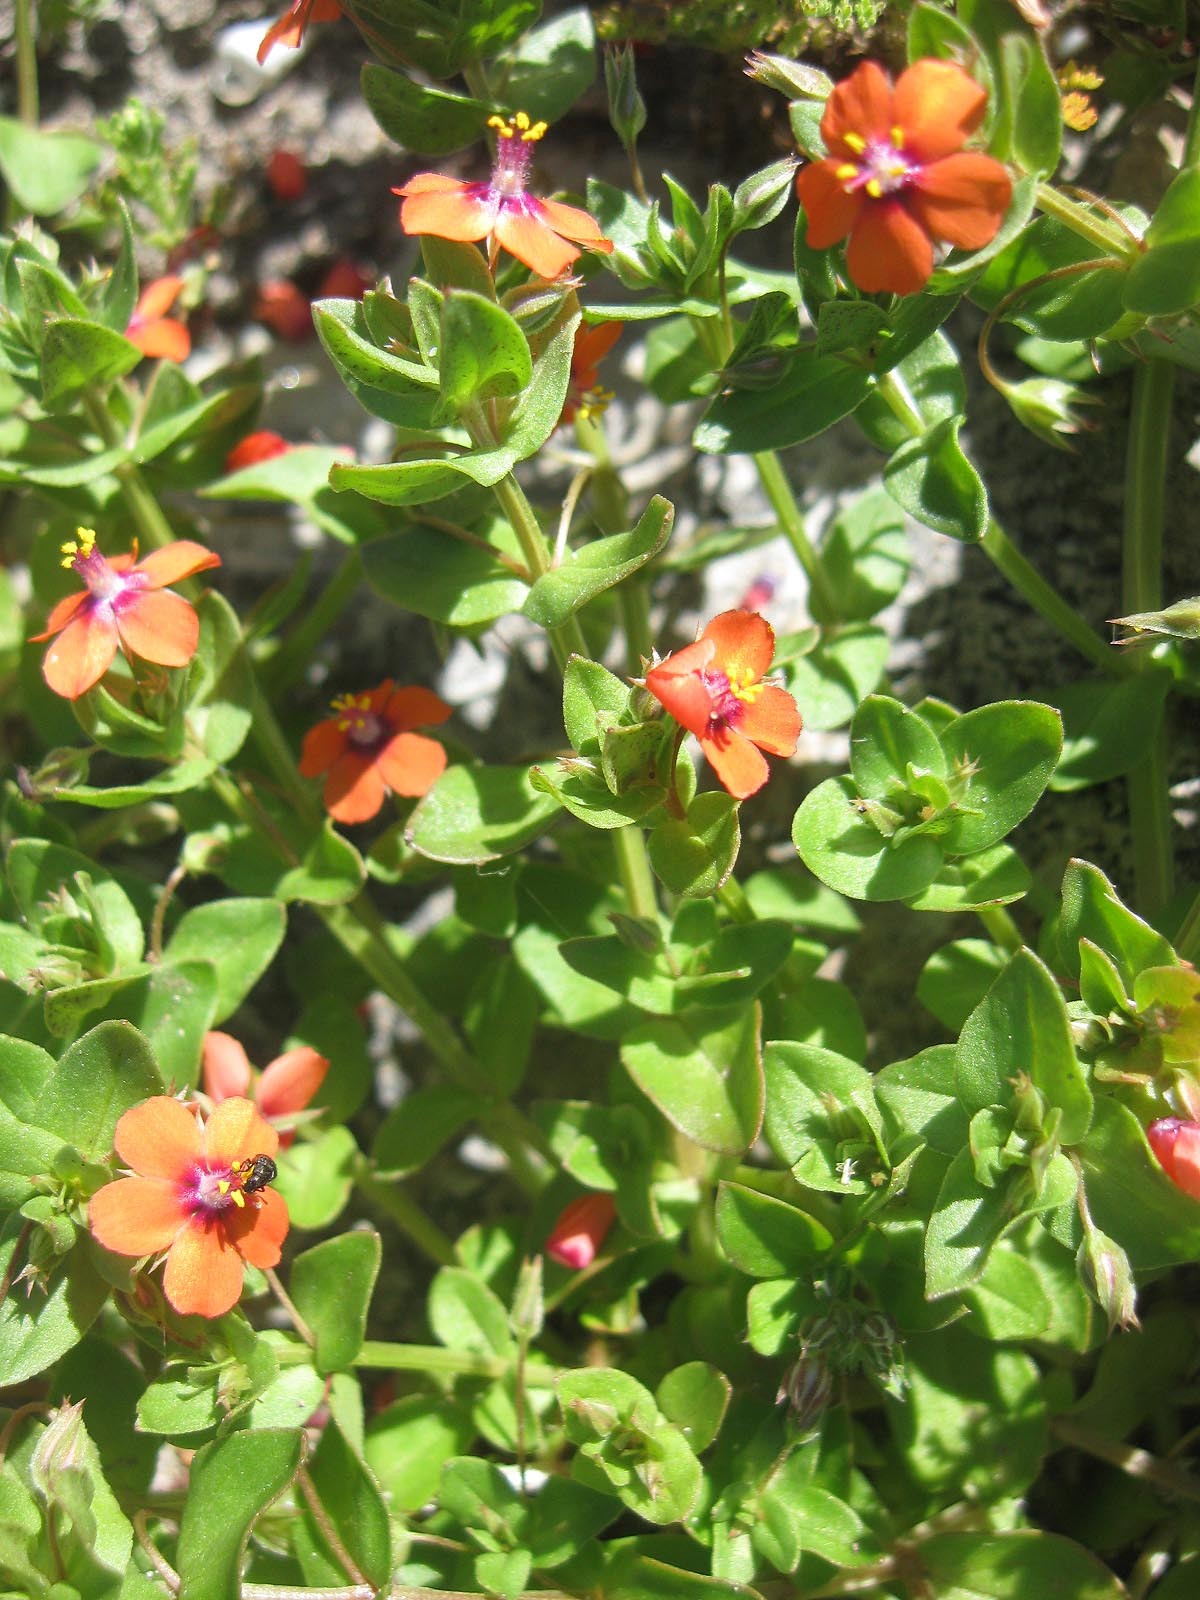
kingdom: Plantae
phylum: Tracheophyta
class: Magnoliopsida
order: Ericales
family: Primulaceae
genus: Lysimachia
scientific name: Lysimachia arvensis
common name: Scarlet pimpernel
